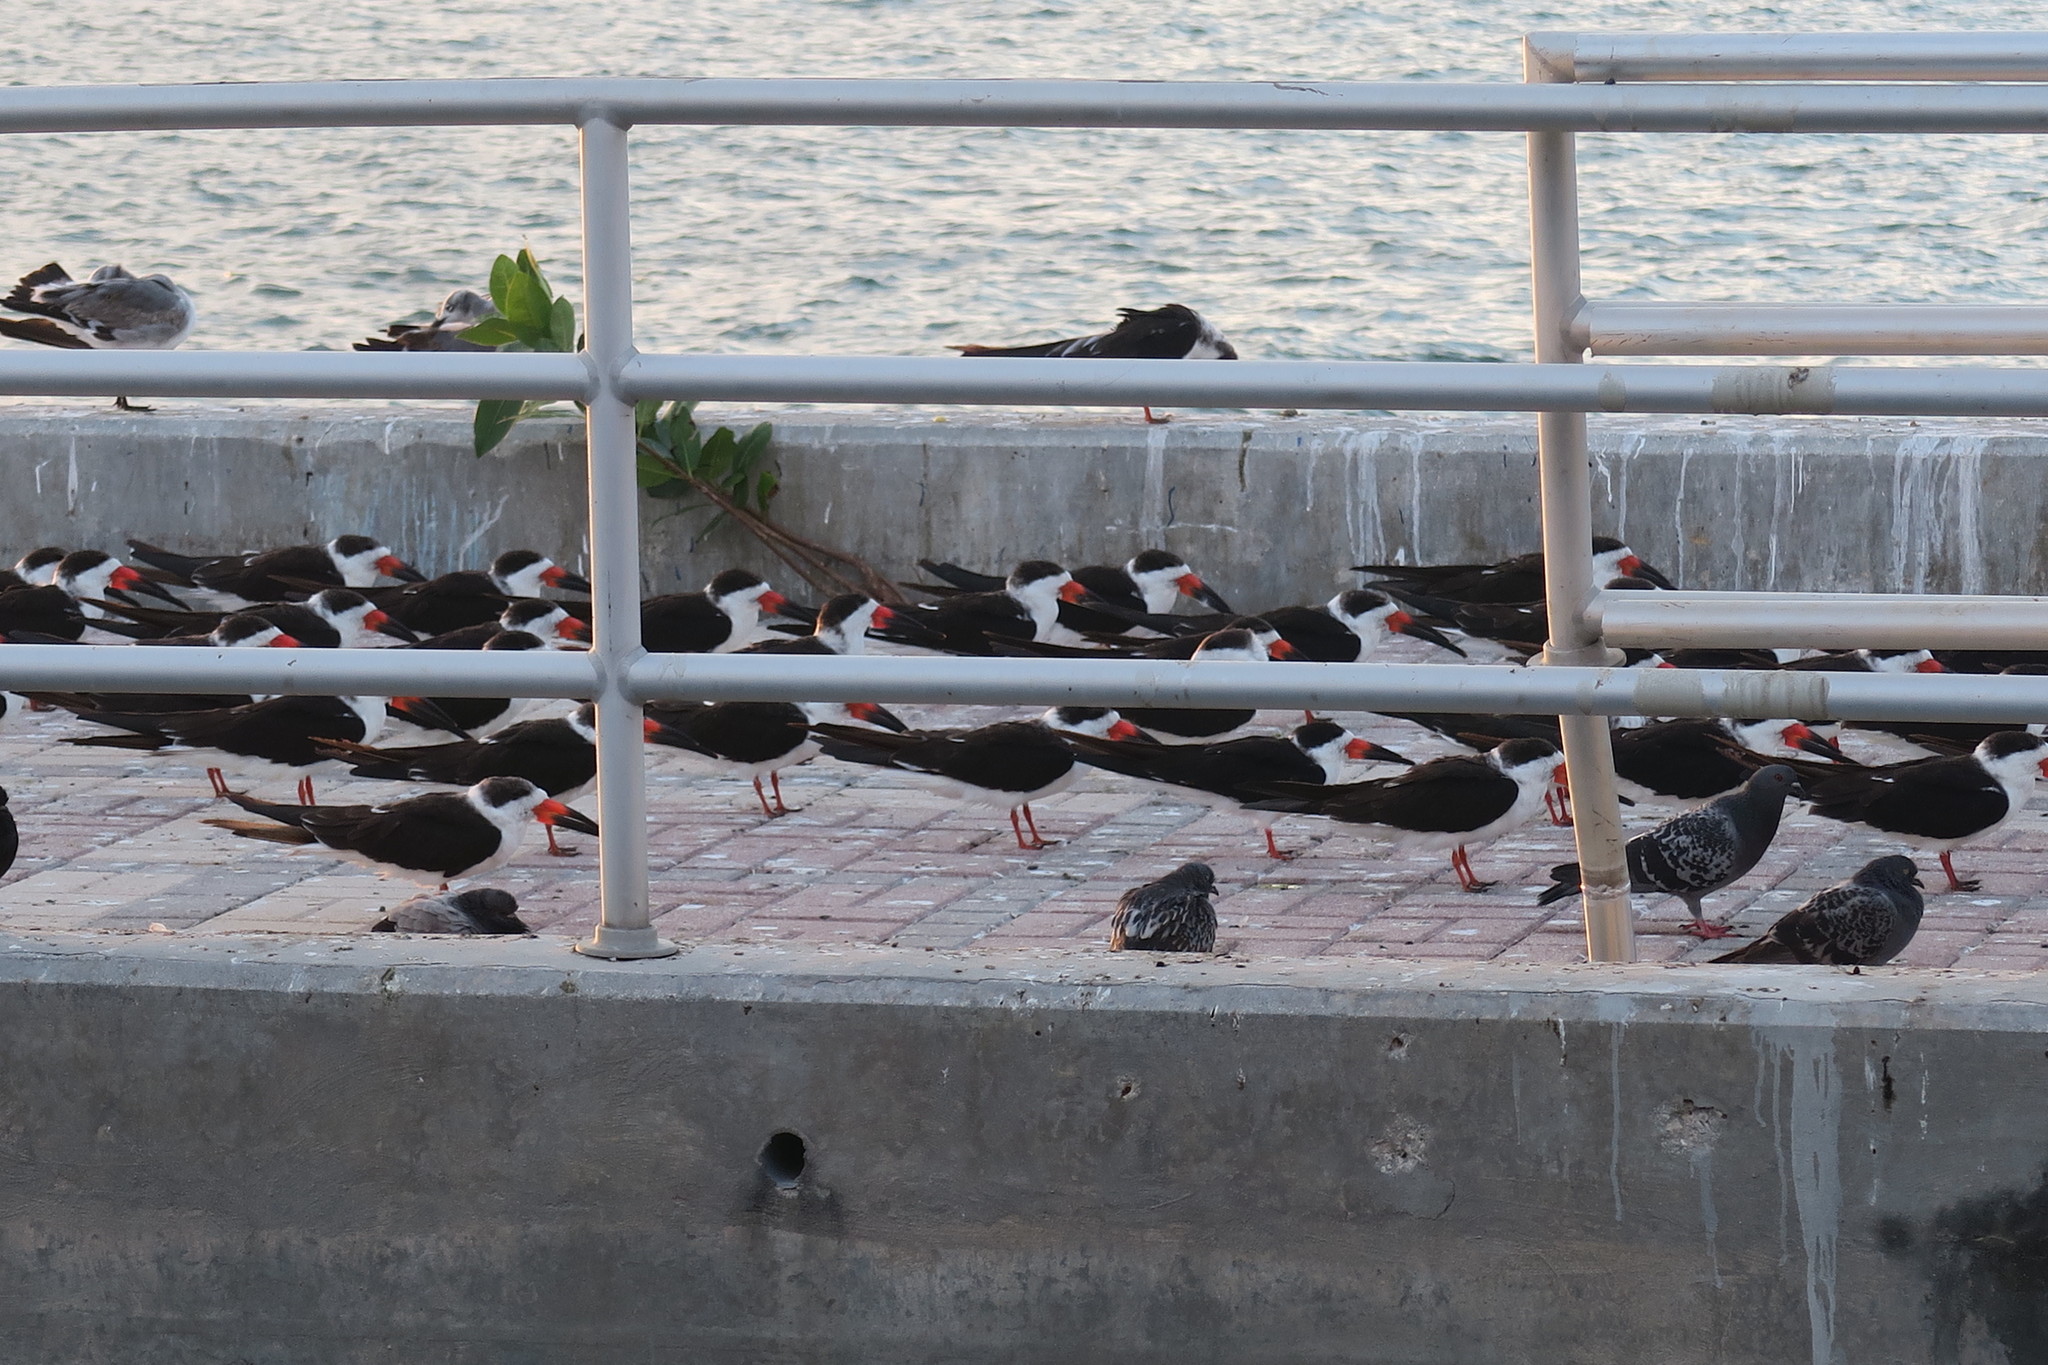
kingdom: Animalia
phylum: Chordata
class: Aves
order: Charadriiformes
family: Laridae
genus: Rynchops
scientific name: Rynchops niger
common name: Black skimmer
